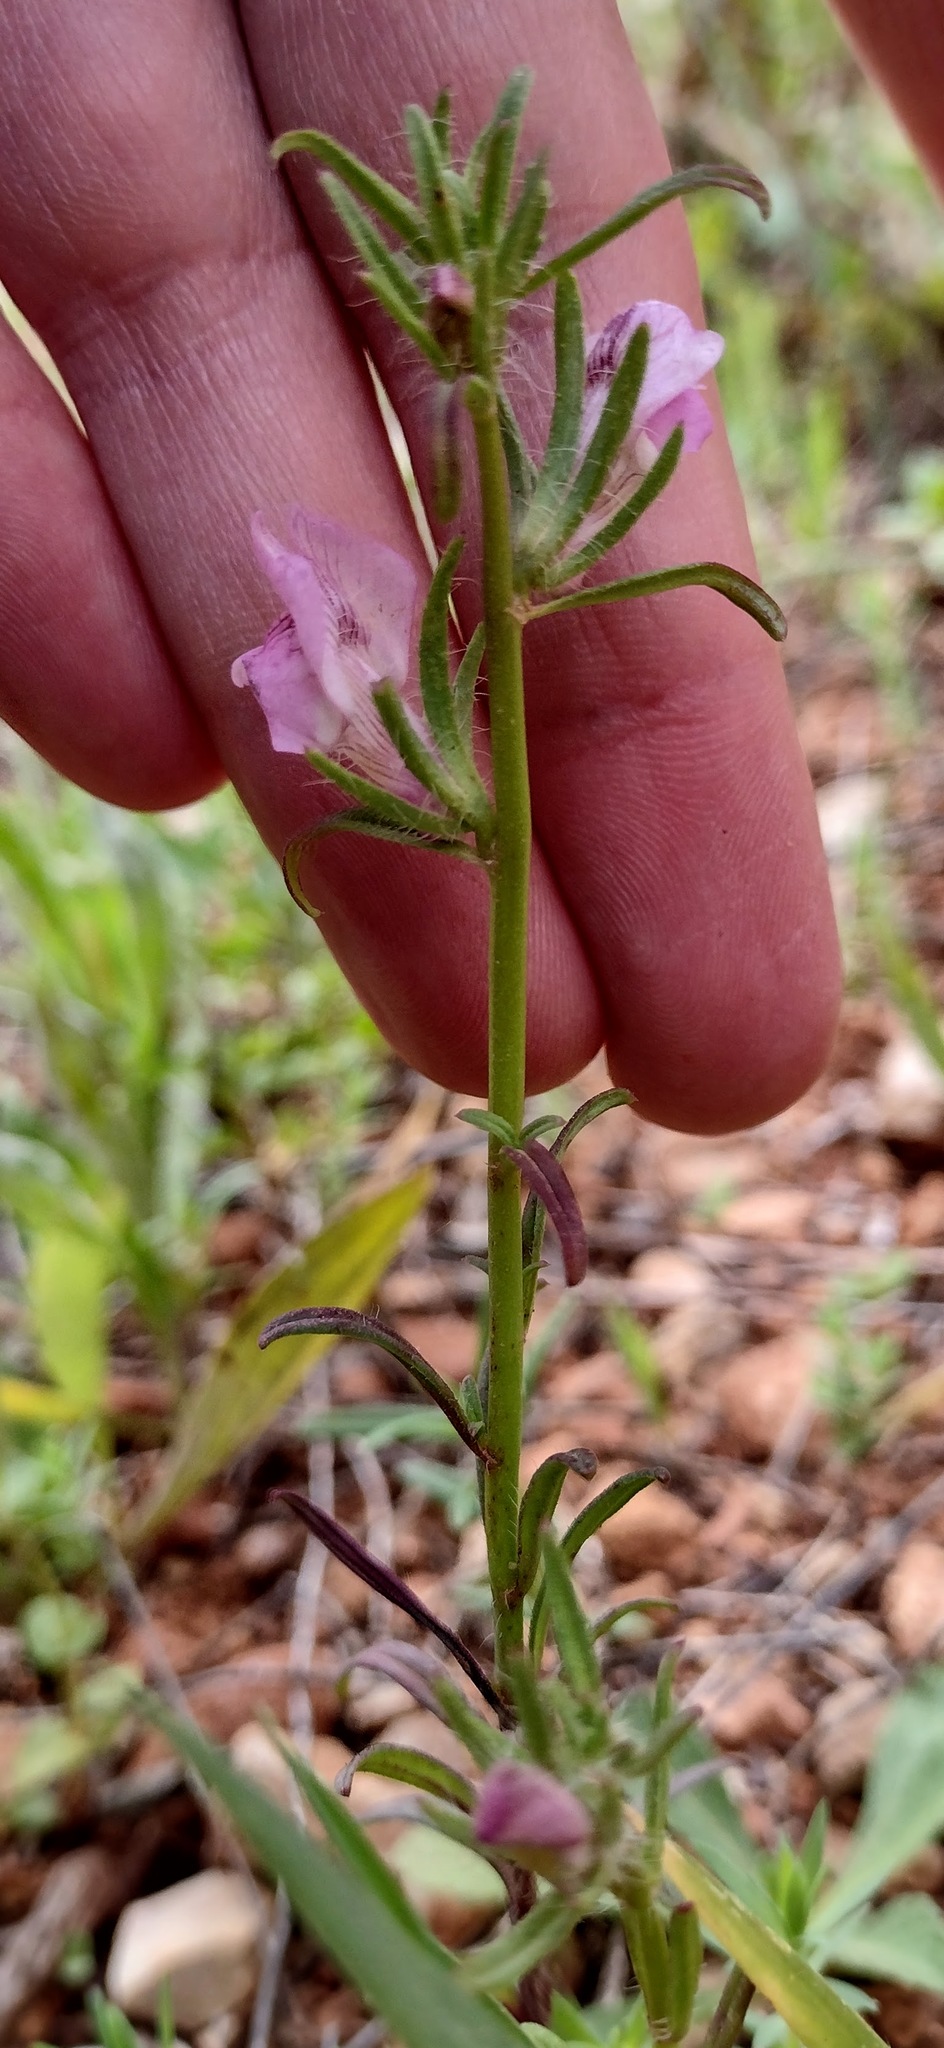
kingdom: Plantae
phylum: Tracheophyta
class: Magnoliopsida
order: Lamiales
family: Plantaginaceae
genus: Misopates
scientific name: Misopates orontium
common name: Weasel's-snout
